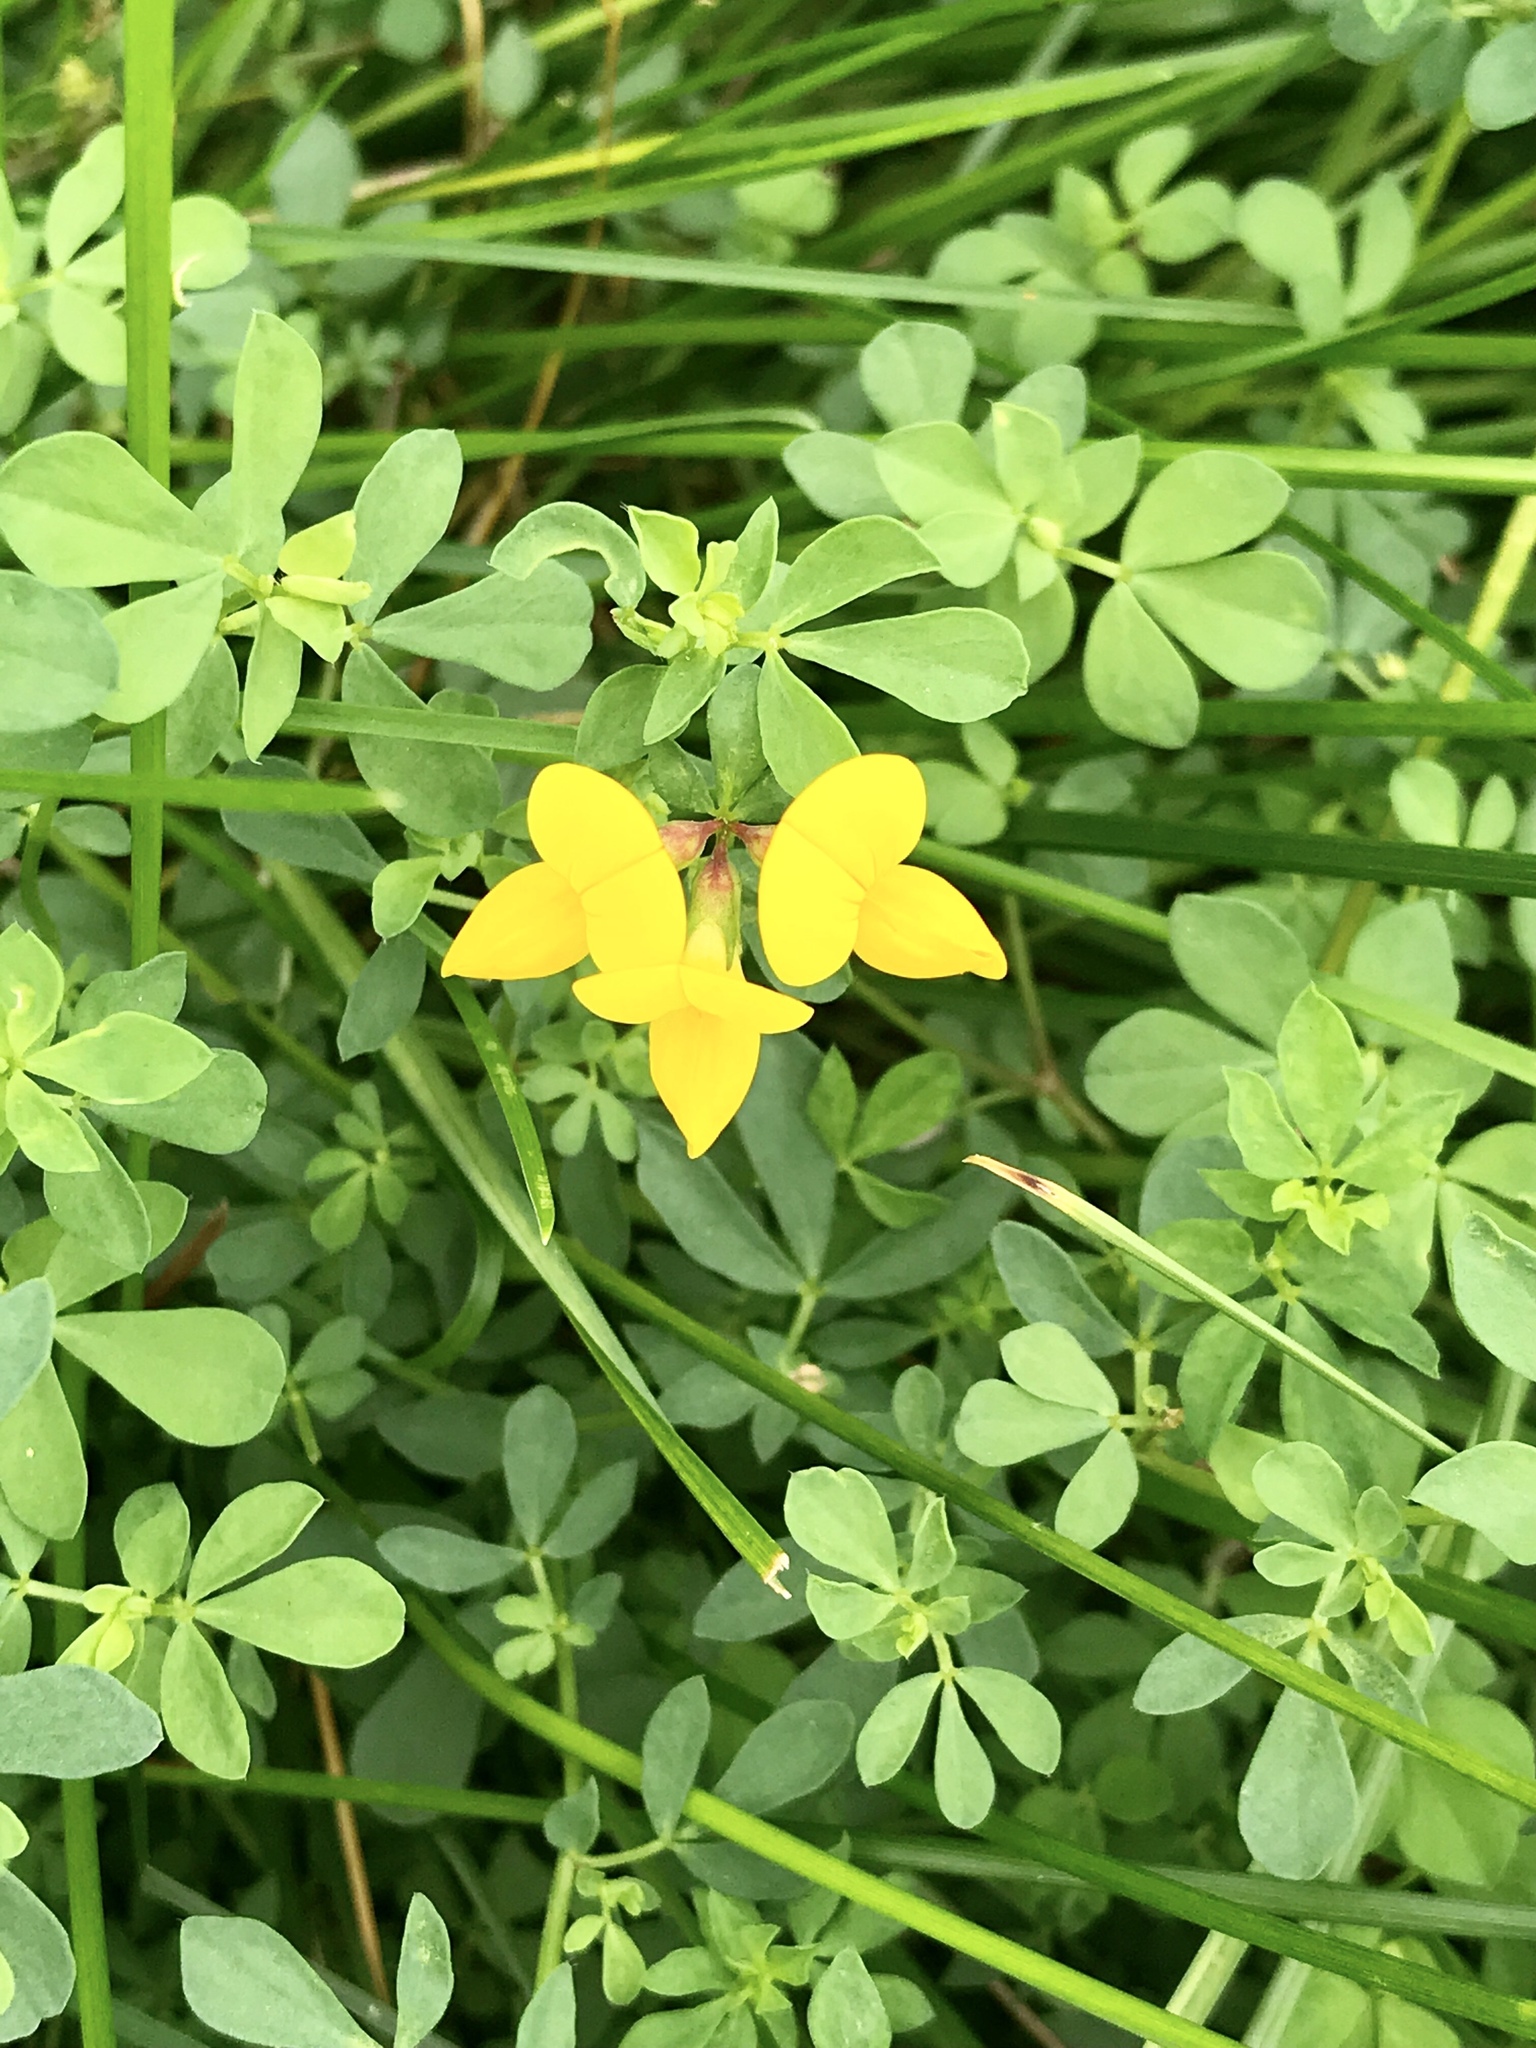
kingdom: Plantae
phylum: Tracheophyta
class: Magnoliopsida
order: Fabales
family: Fabaceae
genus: Lotus
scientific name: Lotus corniculatus
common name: Common bird's-foot-trefoil
